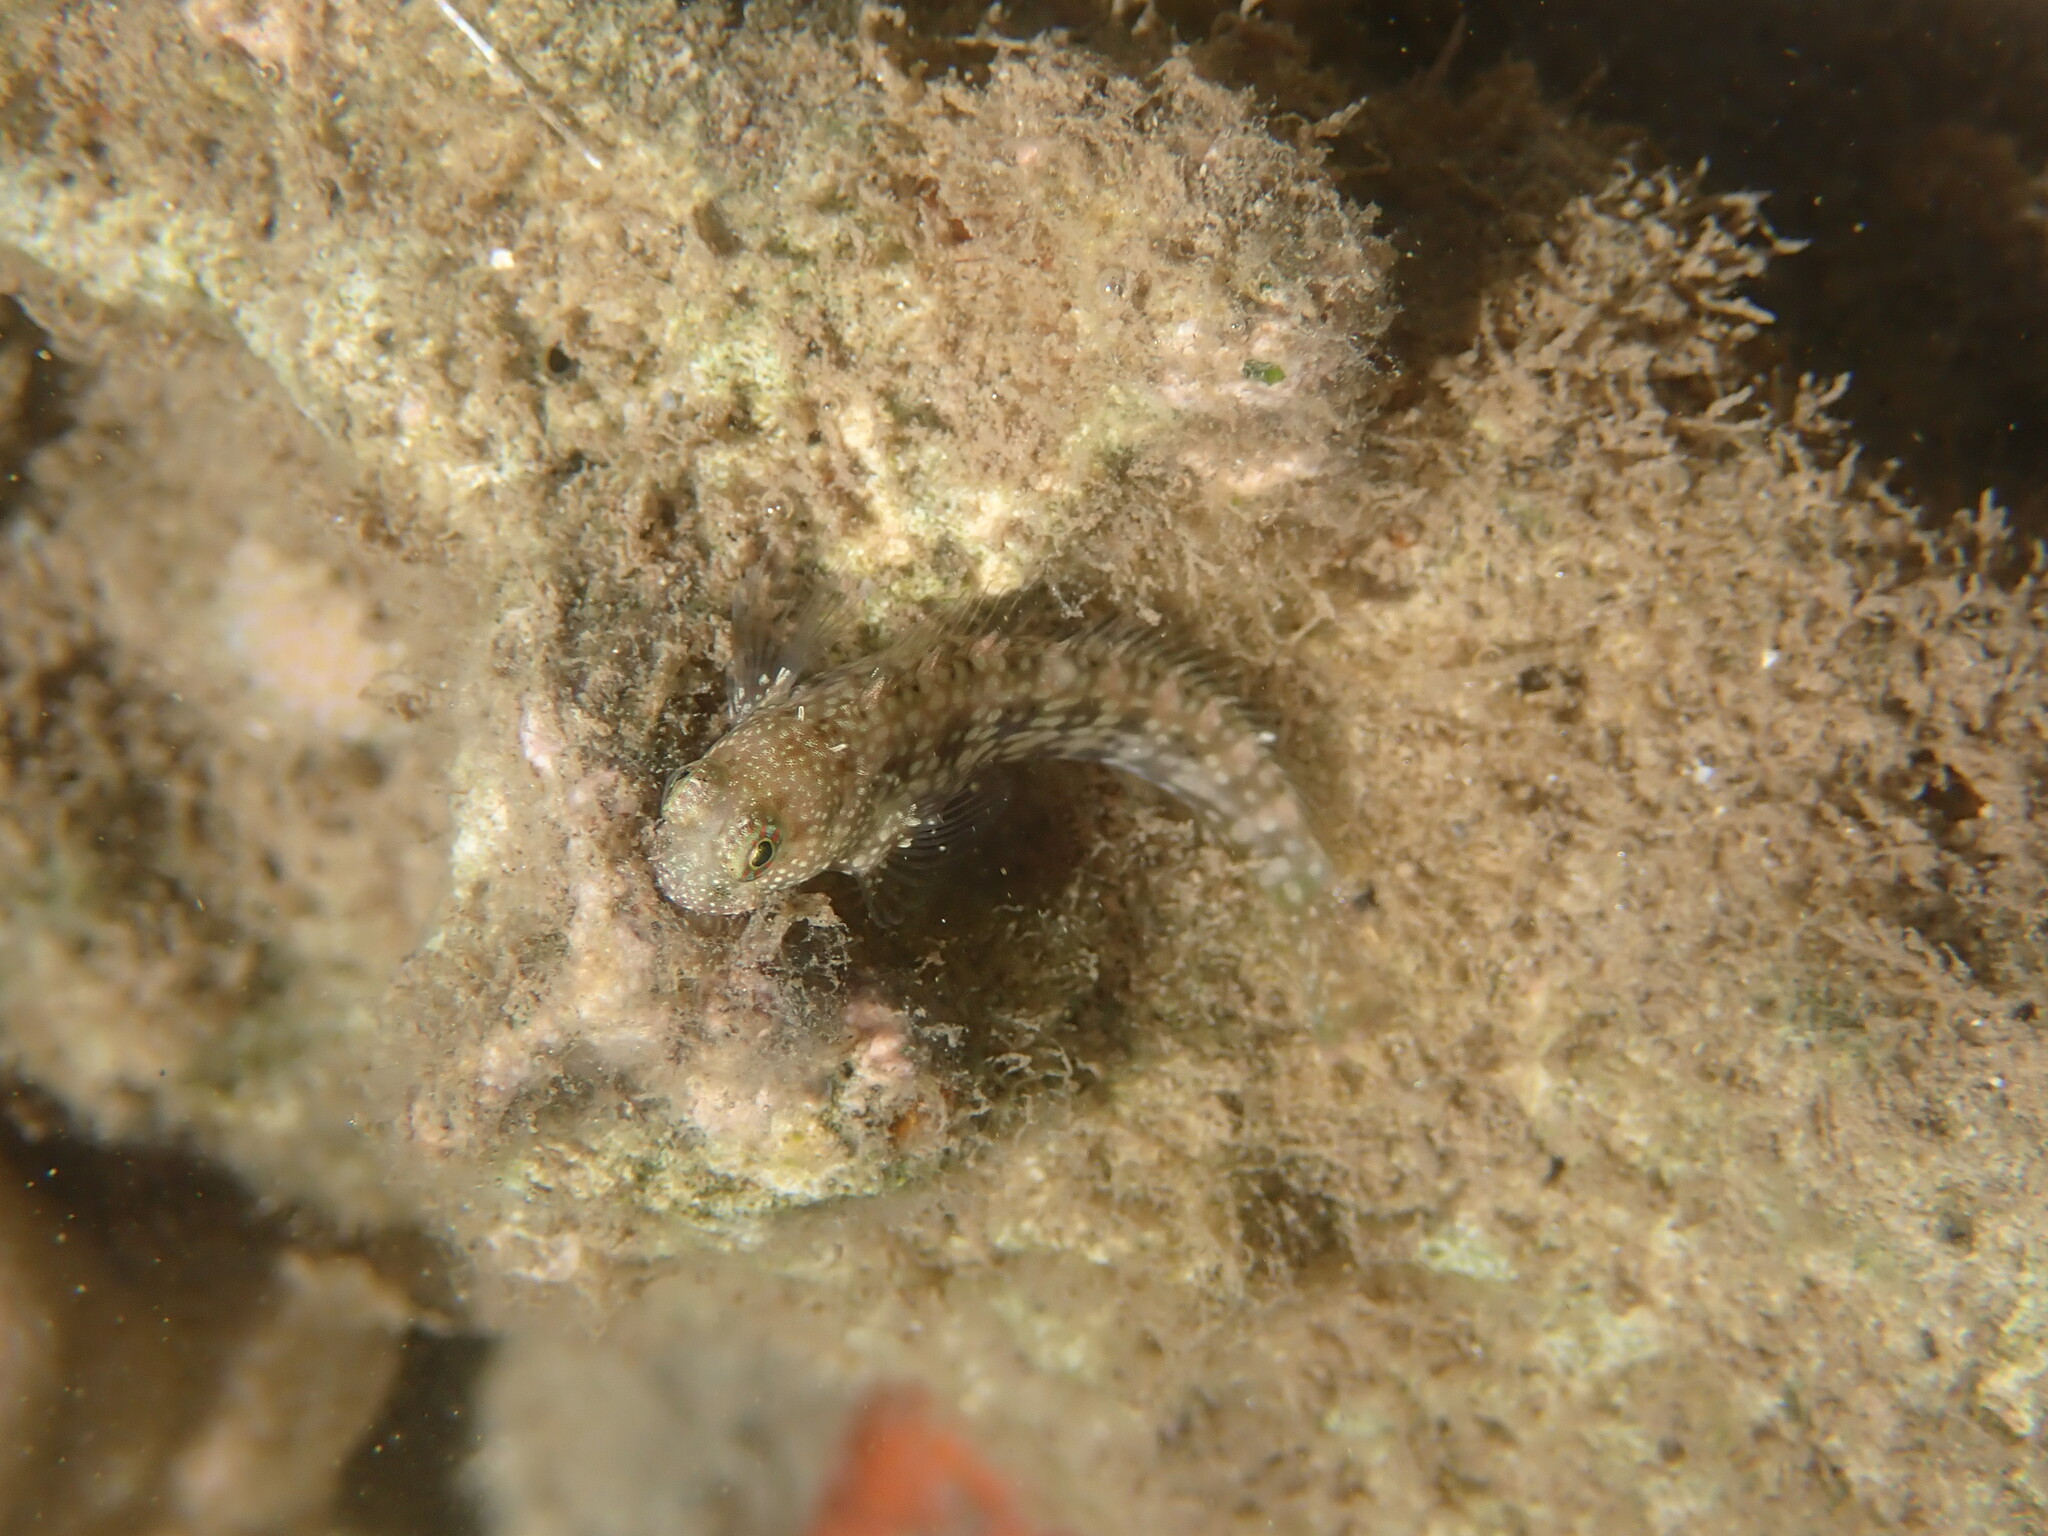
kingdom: Animalia
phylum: Chordata
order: Perciformes
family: Blenniidae
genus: Salarias
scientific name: Salarias alboguttatus
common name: White-spotted blenny
